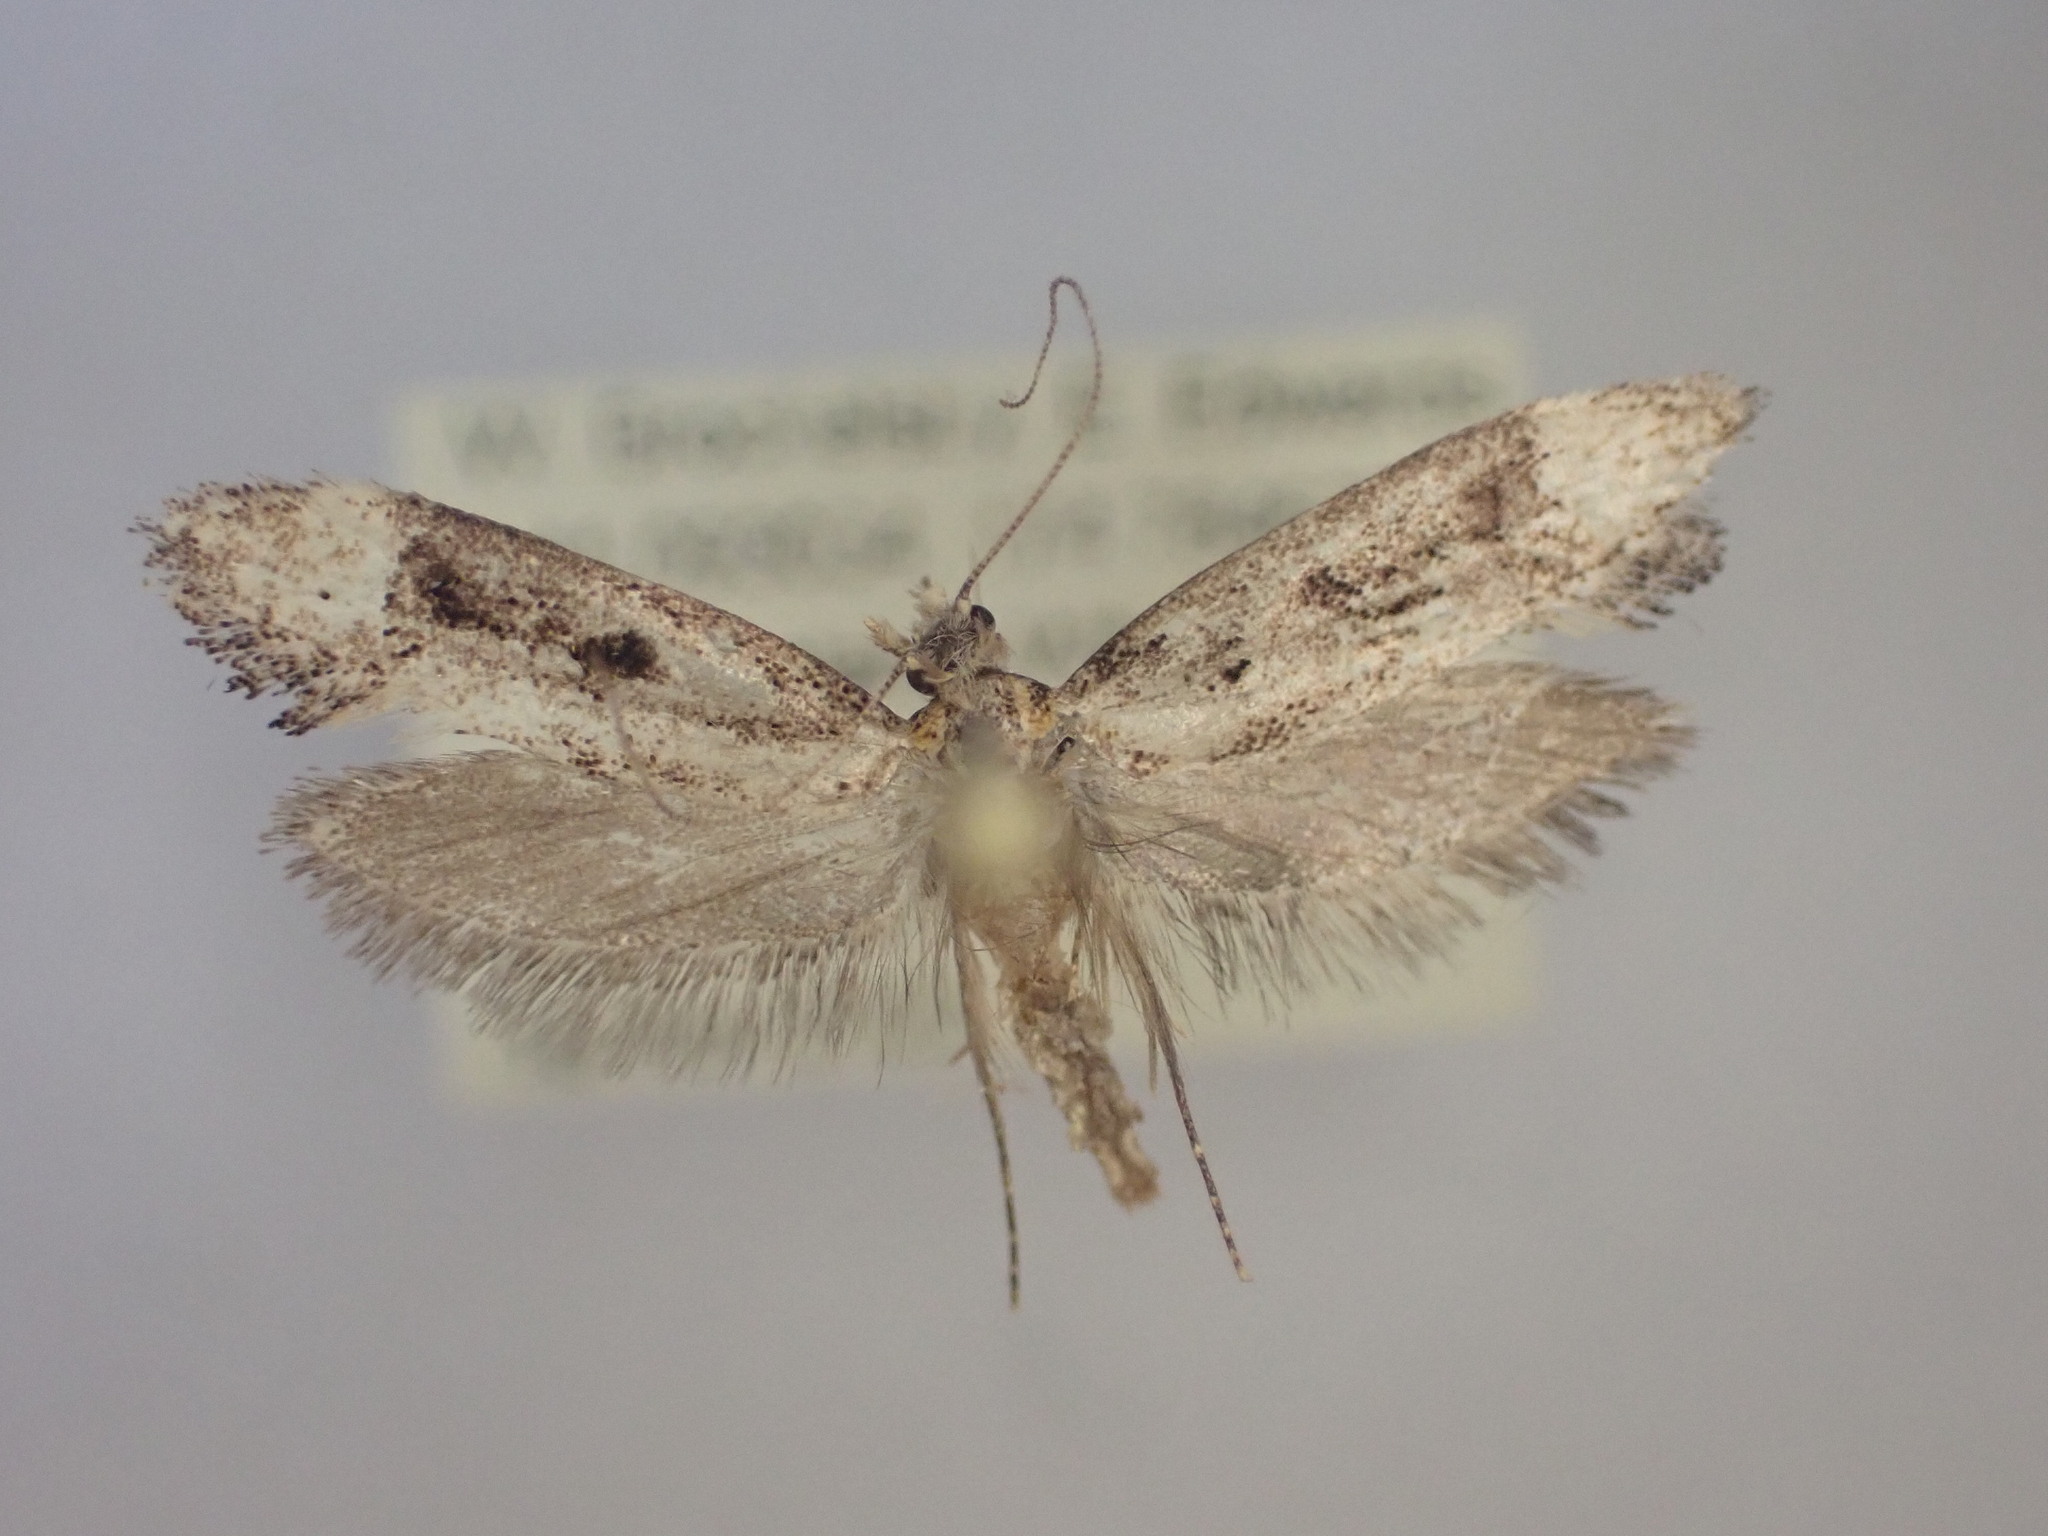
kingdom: Animalia
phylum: Arthropoda
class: Insecta
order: Lepidoptera
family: Tineidae
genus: Trithamnora
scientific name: Trithamnora certella
